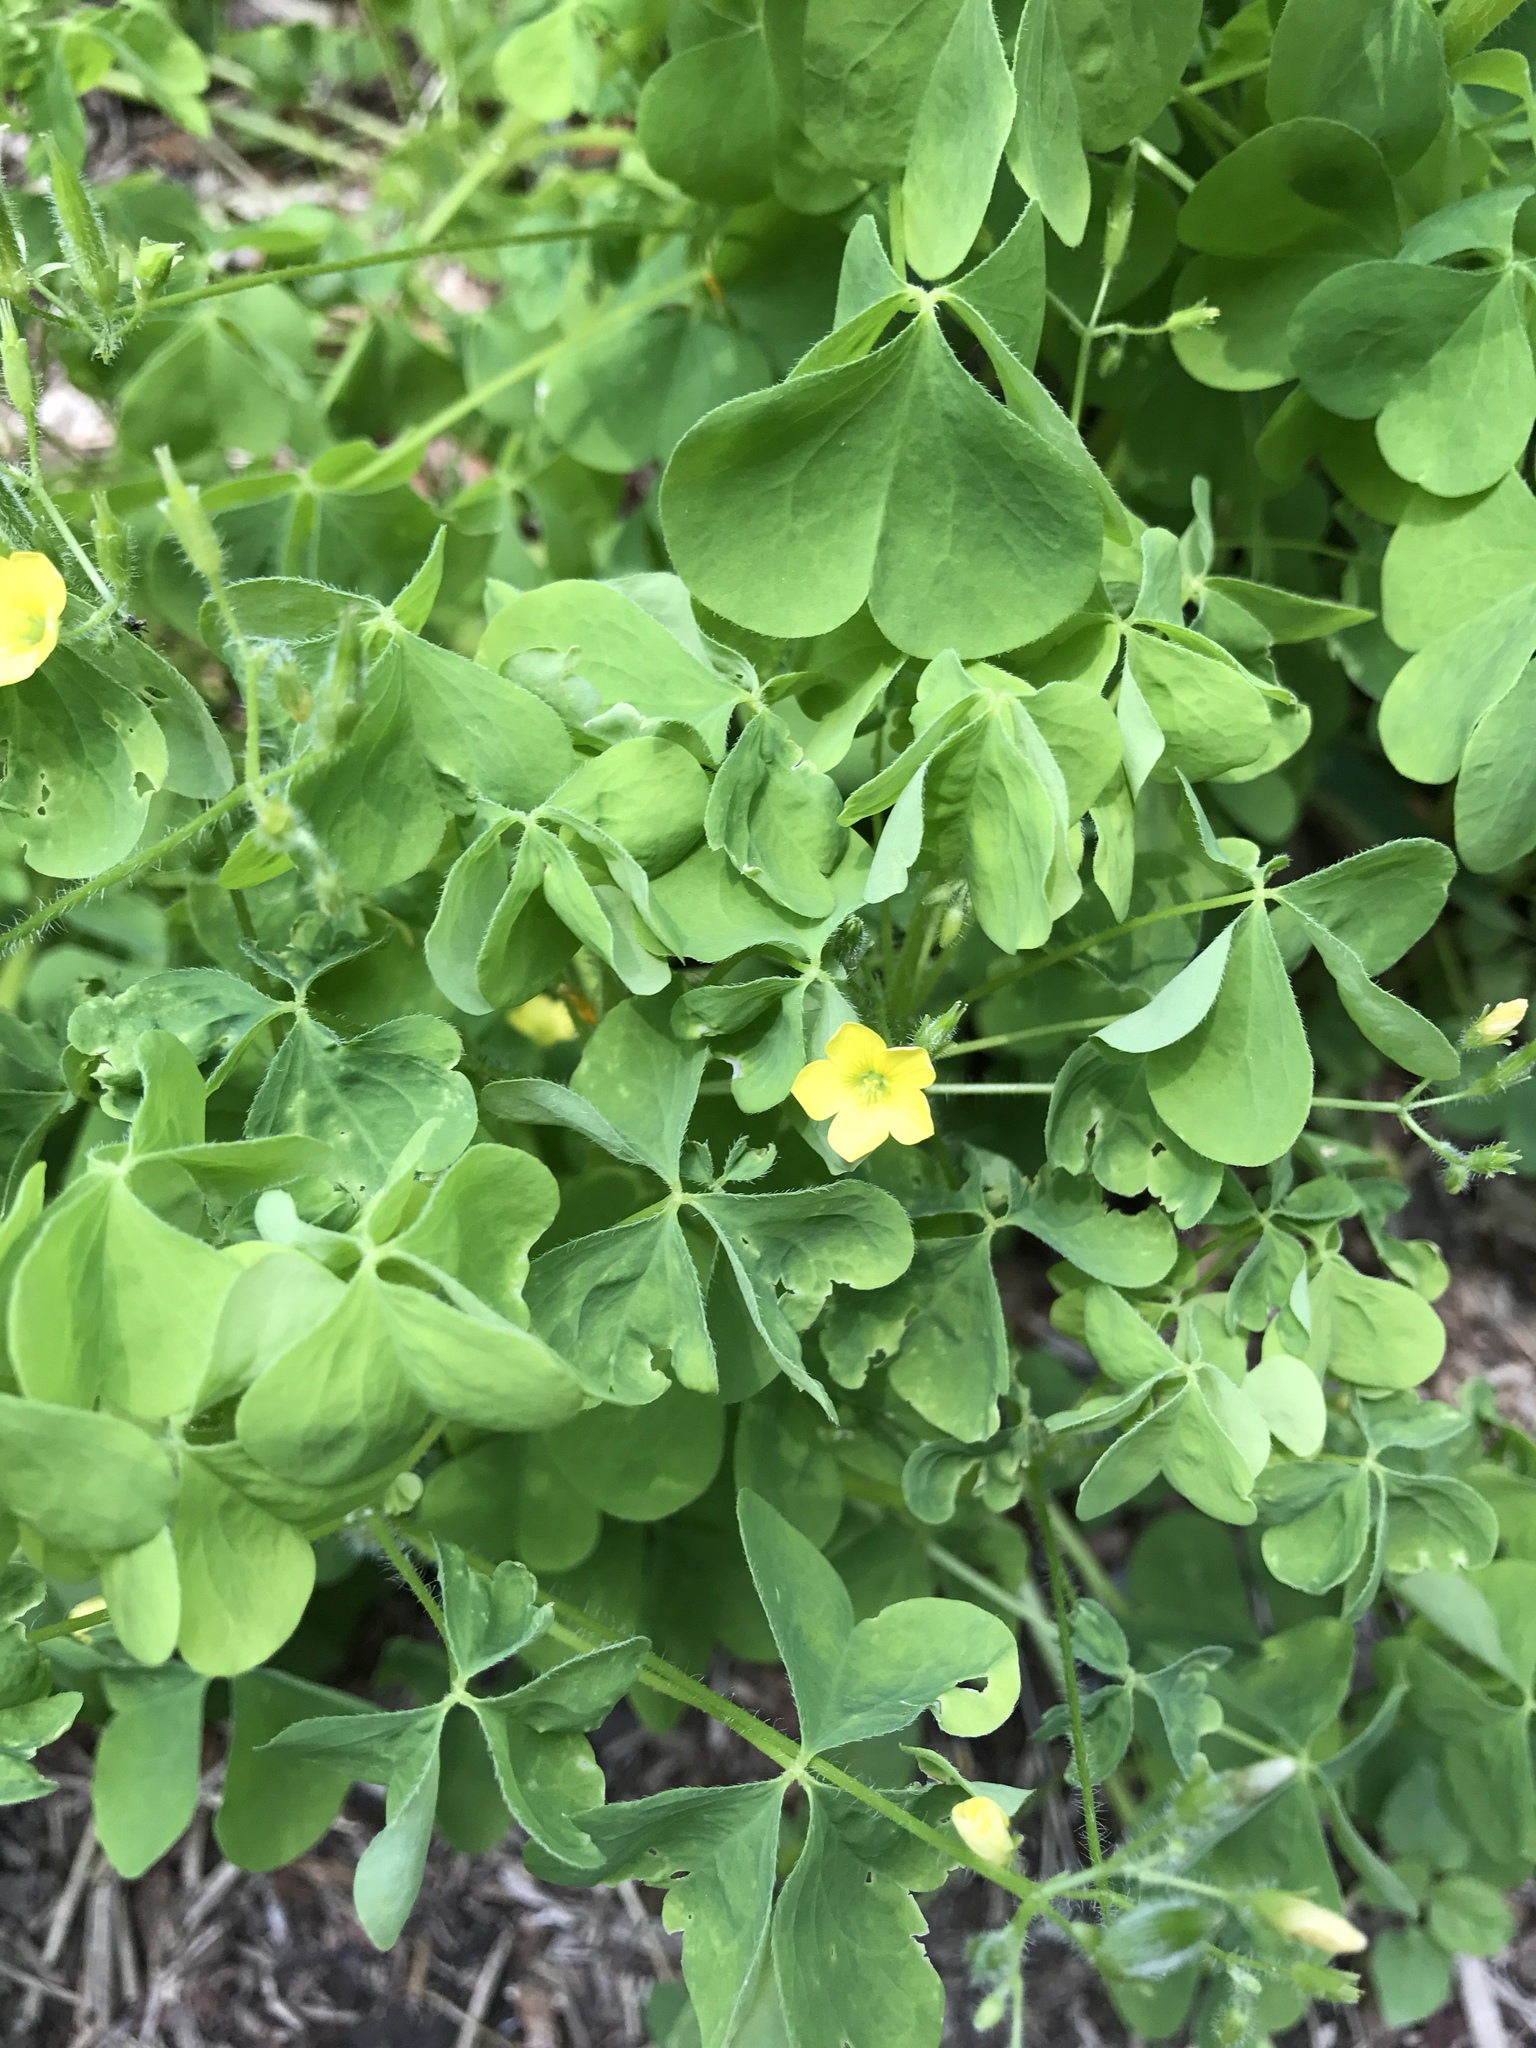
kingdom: Plantae
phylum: Tracheophyta
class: Magnoliopsida
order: Oxalidales
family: Oxalidaceae
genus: Oxalis
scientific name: Oxalis stricta
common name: Upright yellow-sorrel
